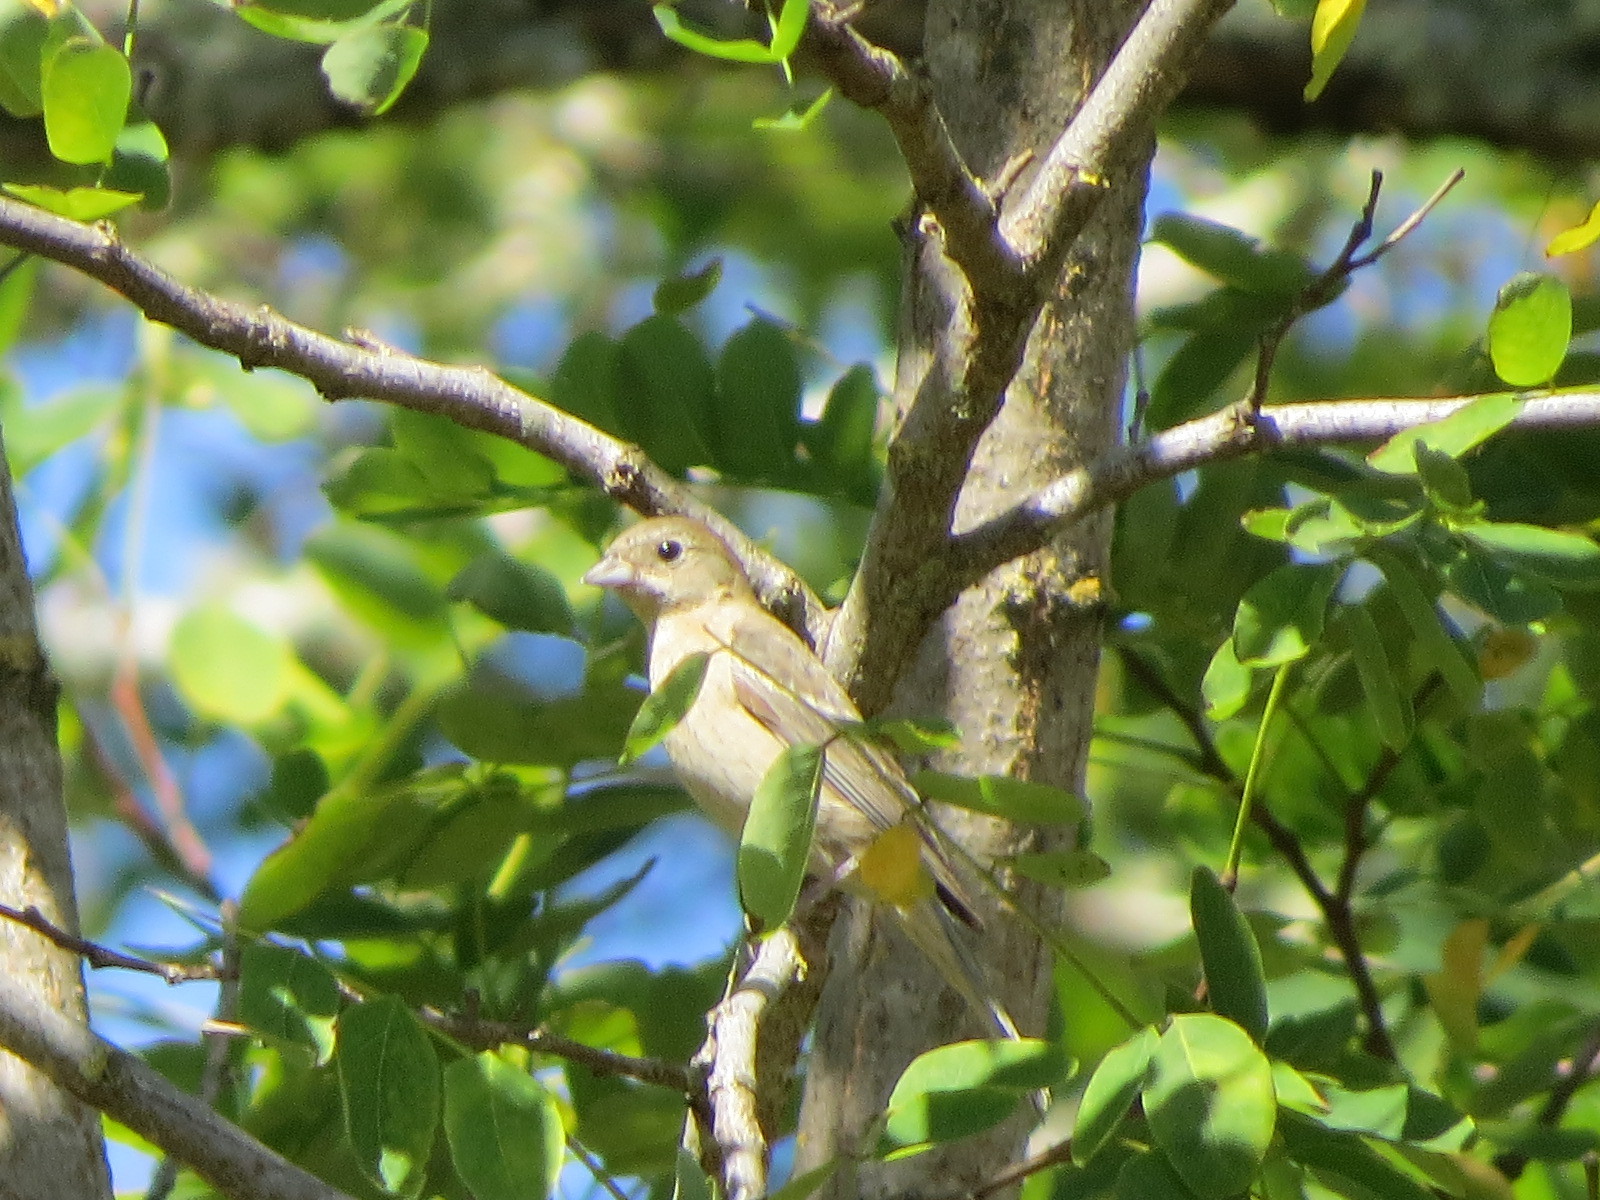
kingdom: Animalia
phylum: Chordata
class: Aves
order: Passeriformes
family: Cardinalidae
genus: Passerina
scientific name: Passerina amoena
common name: Lazuli bunting
